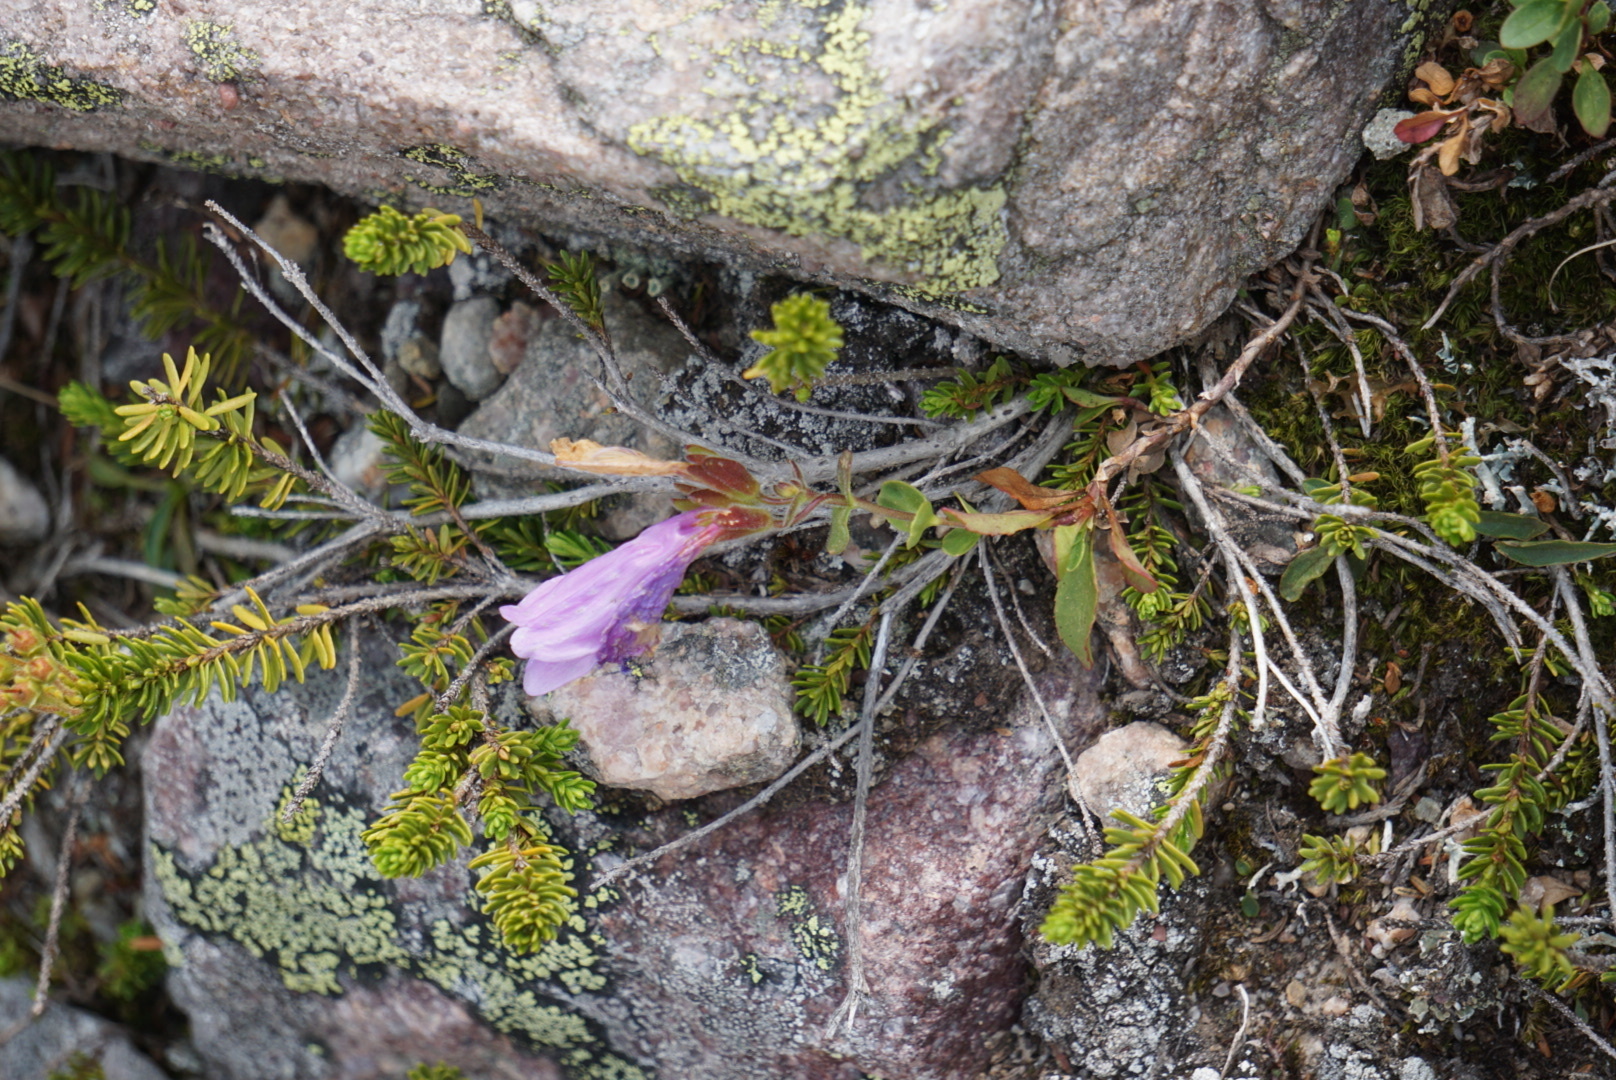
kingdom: Plantae
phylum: Tracheophyta
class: Magnoliopsida
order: Lamiales
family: Plantaginaceae
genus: Penstemon
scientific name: Penstemon ellipticus
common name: Alpine beardtongue
